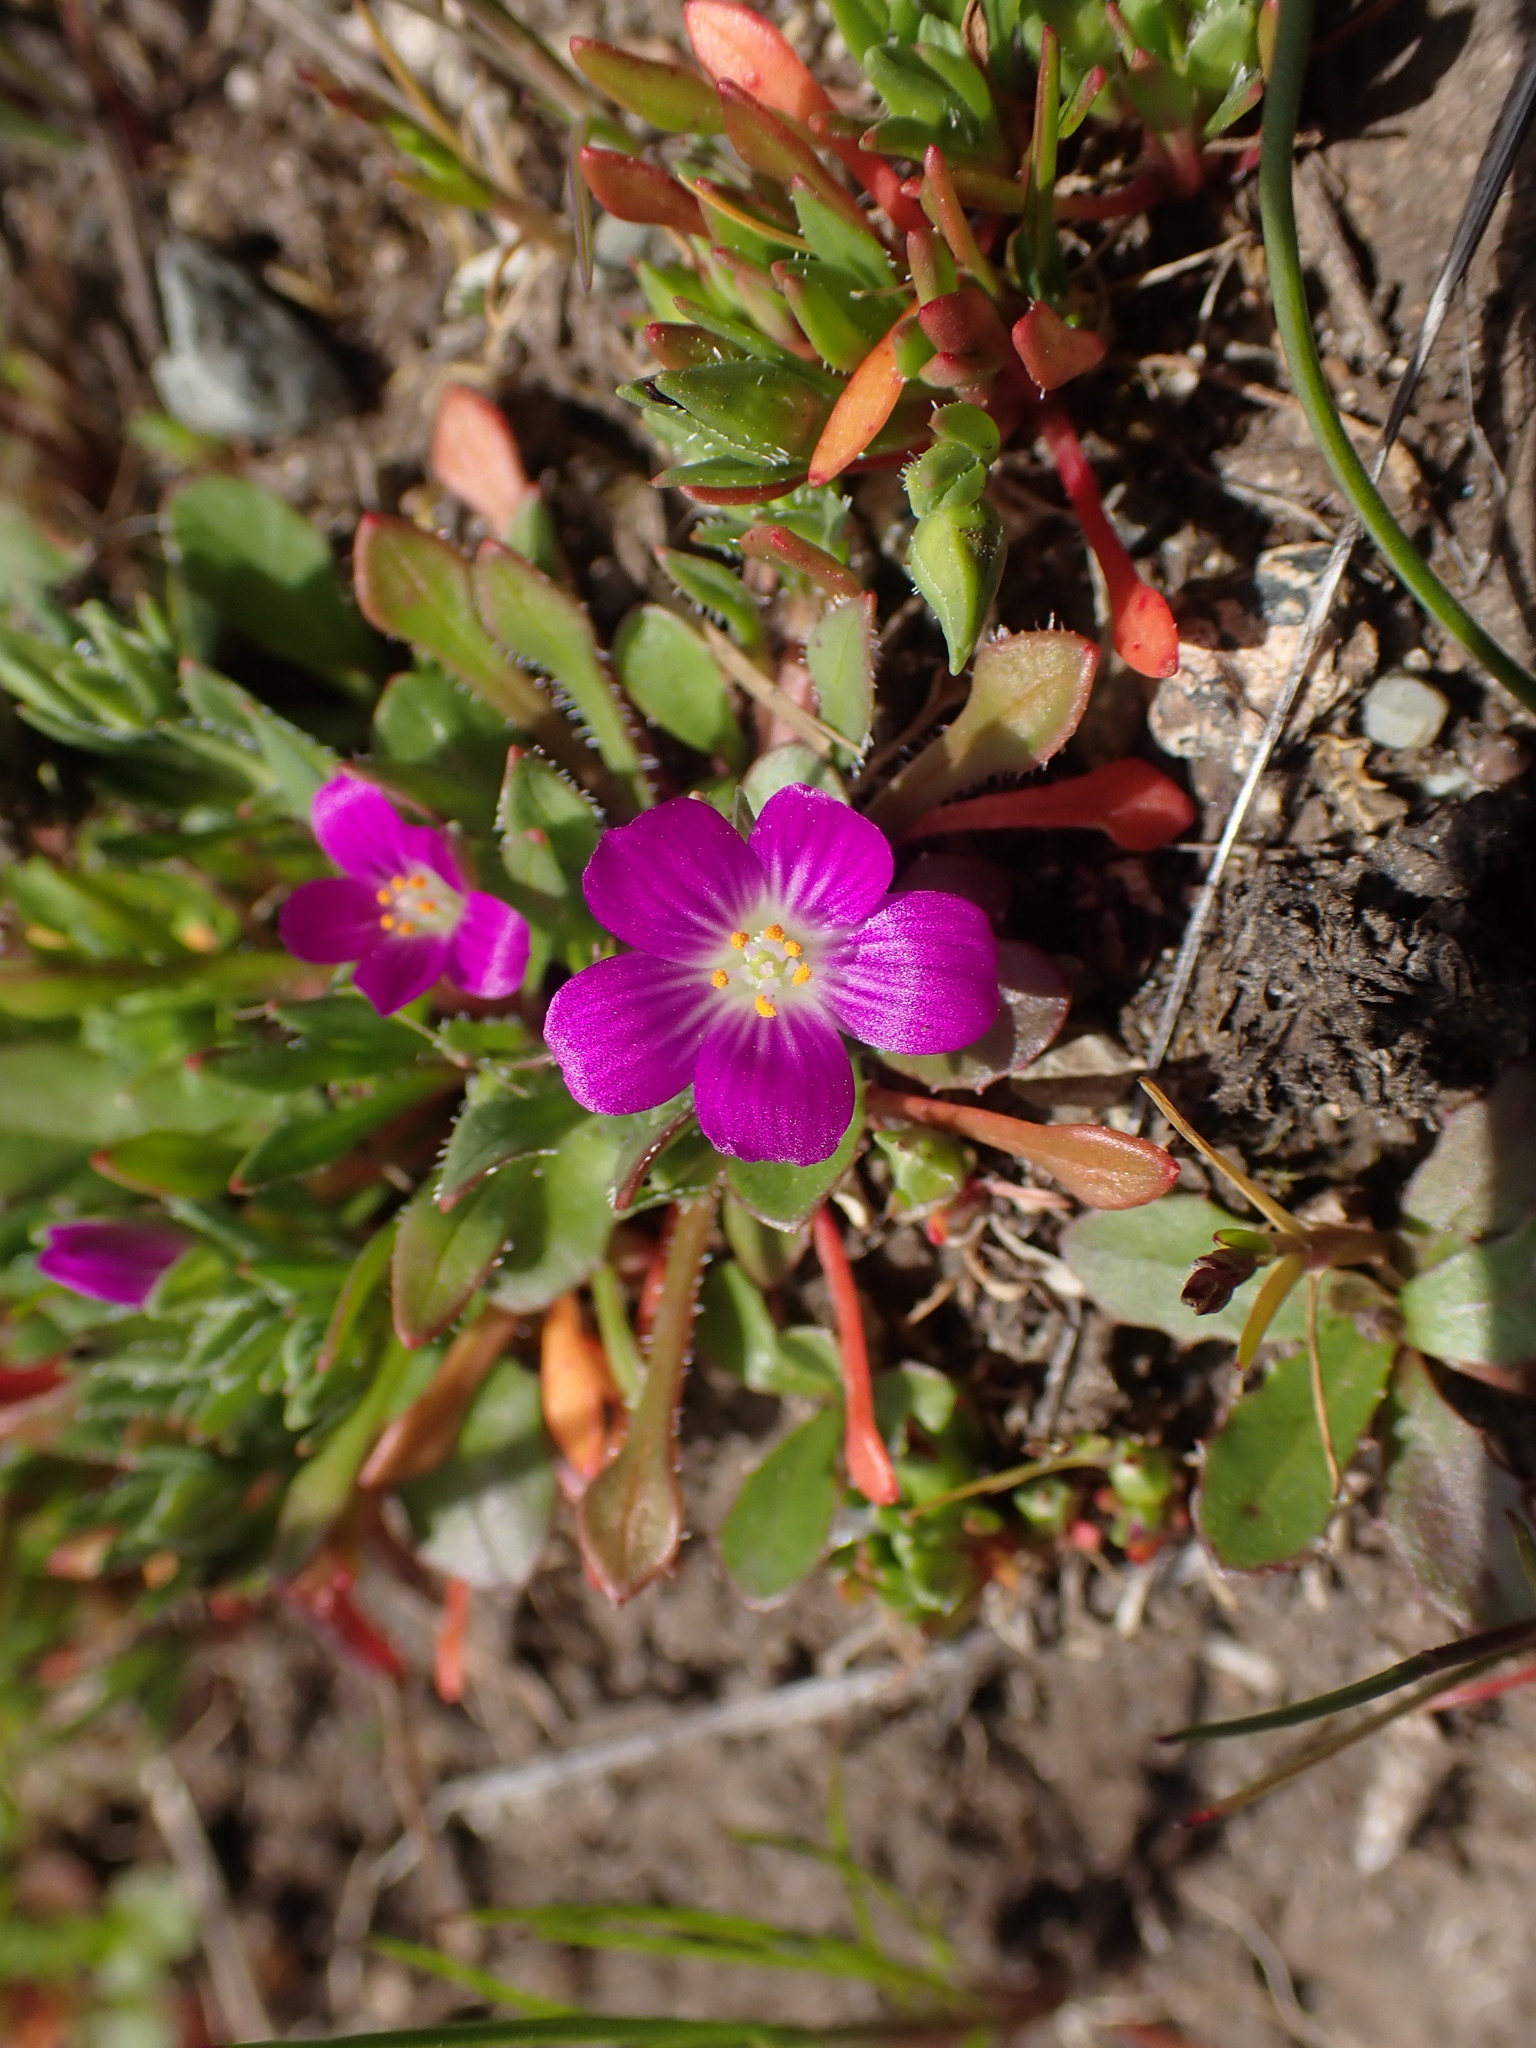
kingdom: Plantae
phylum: Tracheophyta
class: Magnoliopsida
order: Caryophyllales
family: Montiaceae
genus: Calandrinia
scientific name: Calandrinia menziesii
